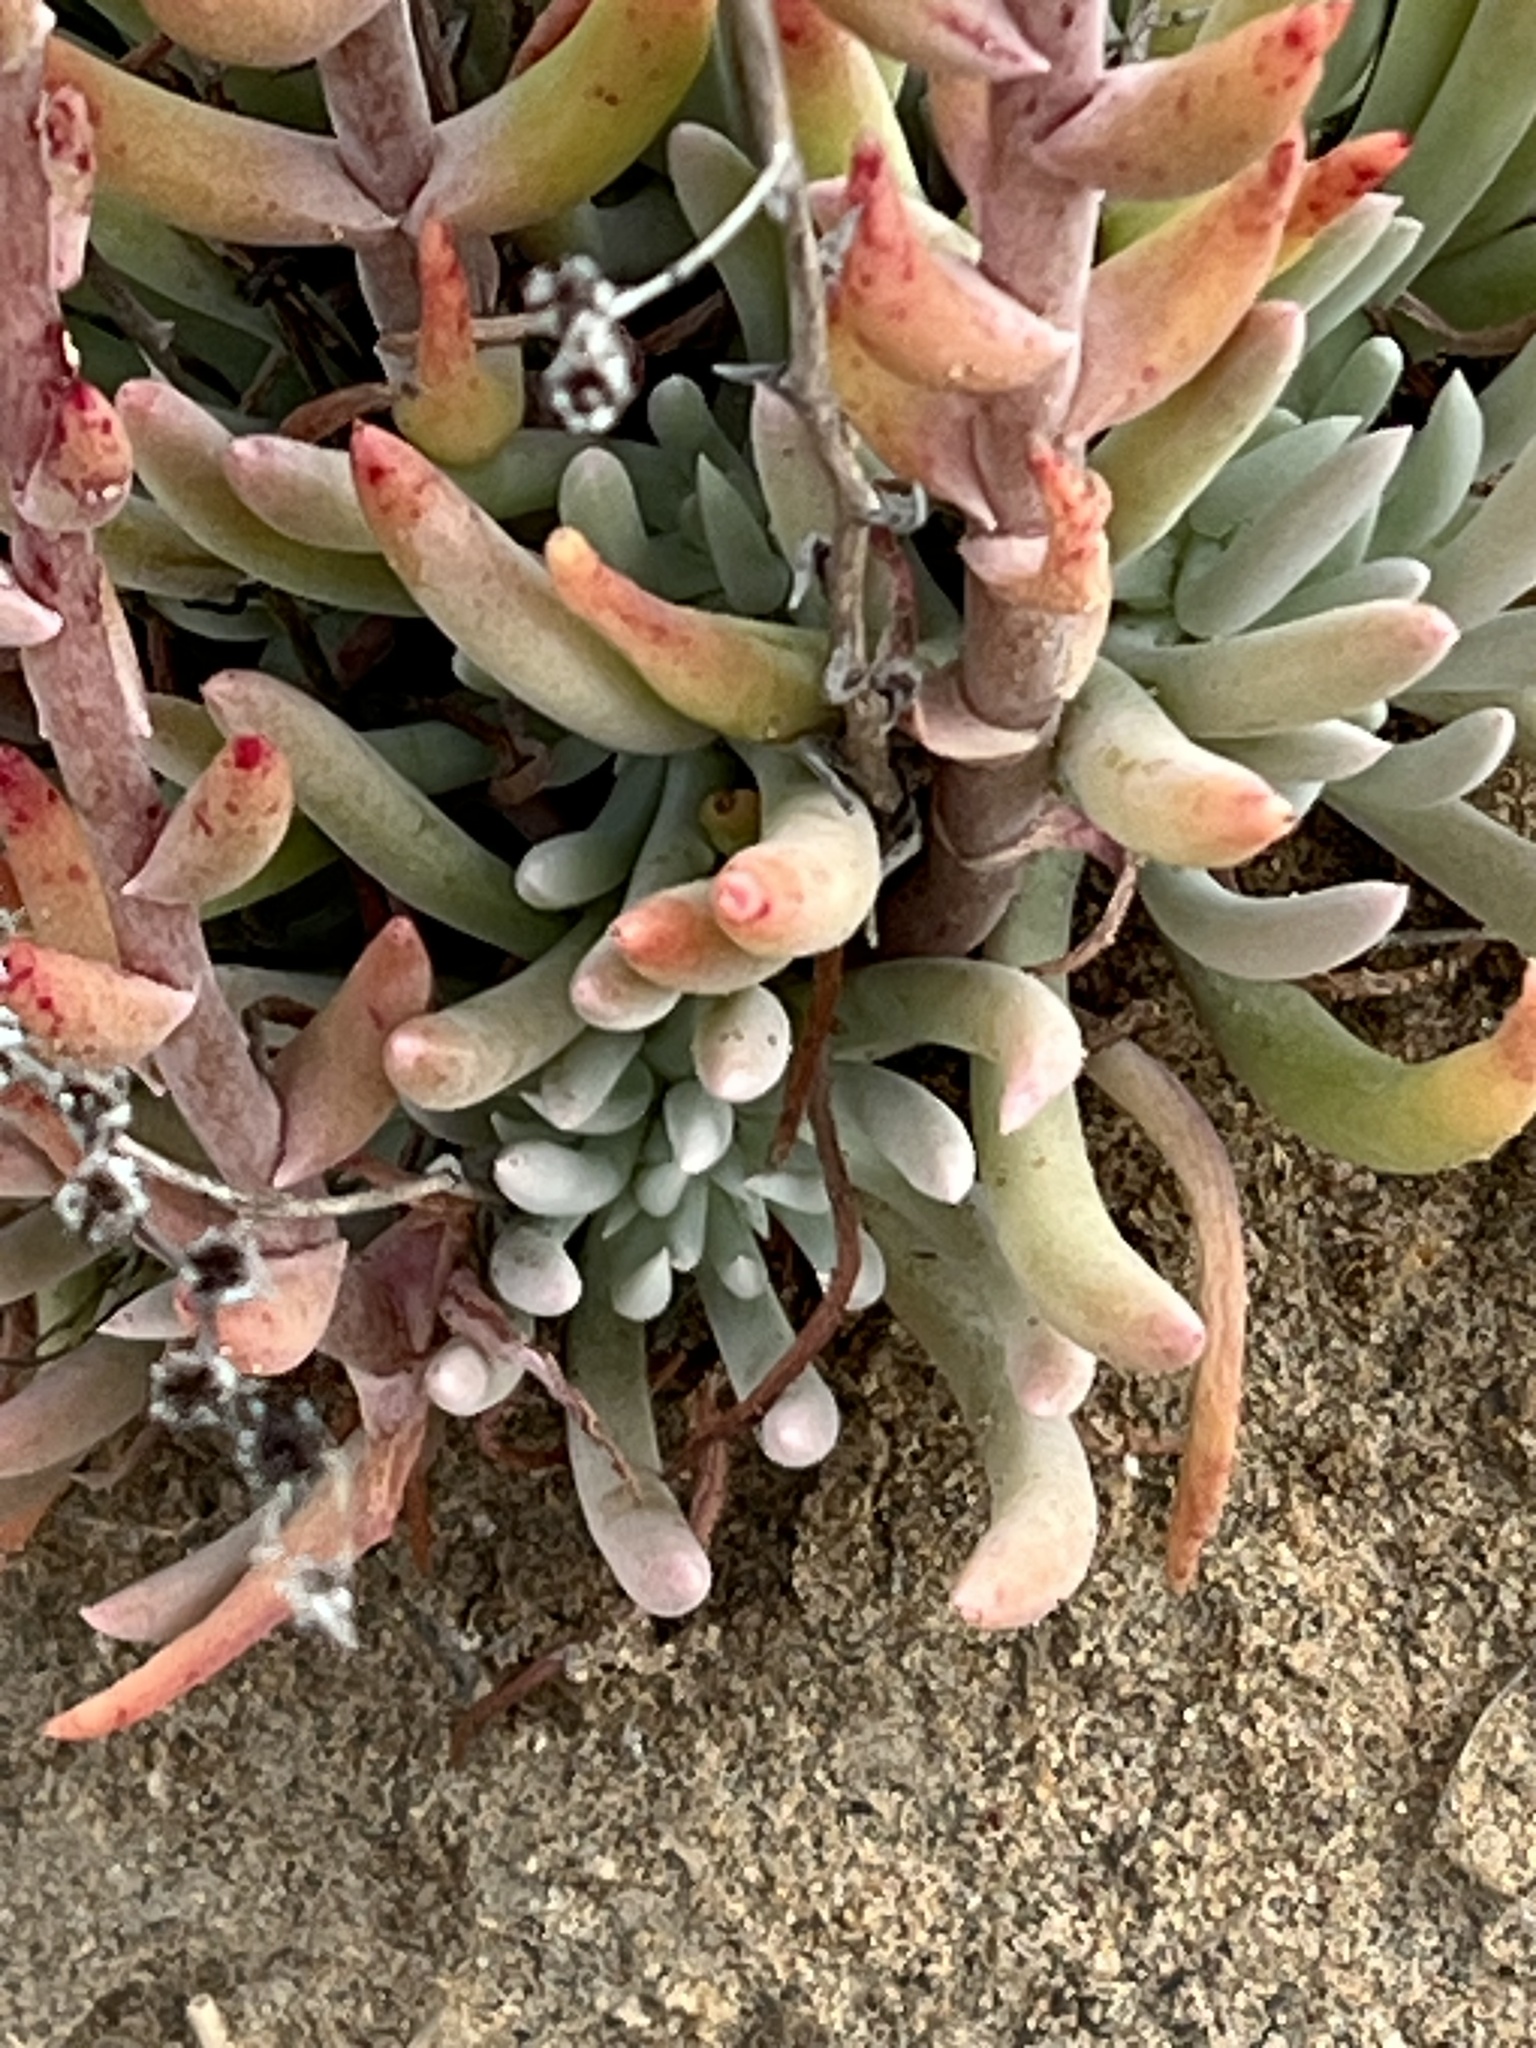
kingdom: Plantae
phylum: Tracheophyta
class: Magnoliopsida
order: Saxifragales
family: Crassulaceae
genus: Dudleya
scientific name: Dudleya attenuata
